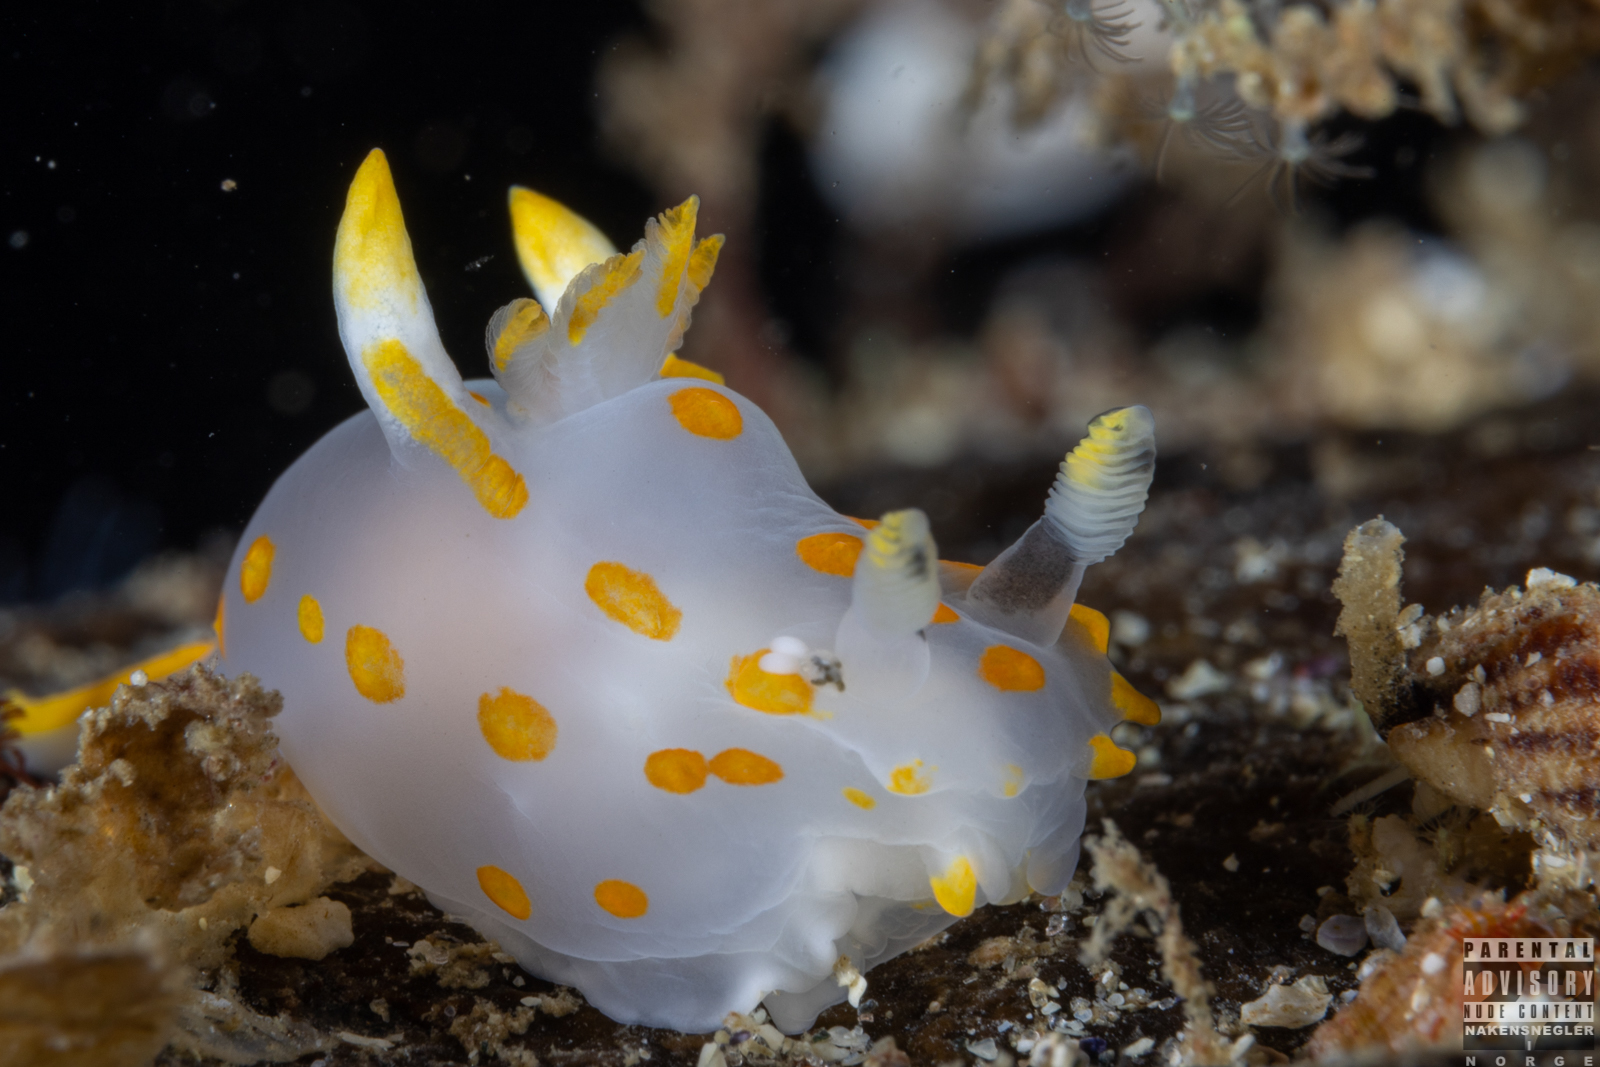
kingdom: Animalia
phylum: Mollusca
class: Gastropoda
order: Nudibranchia
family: Polyceridae
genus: Polycera
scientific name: Polycera quadrilineata
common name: Four-striped polycera
